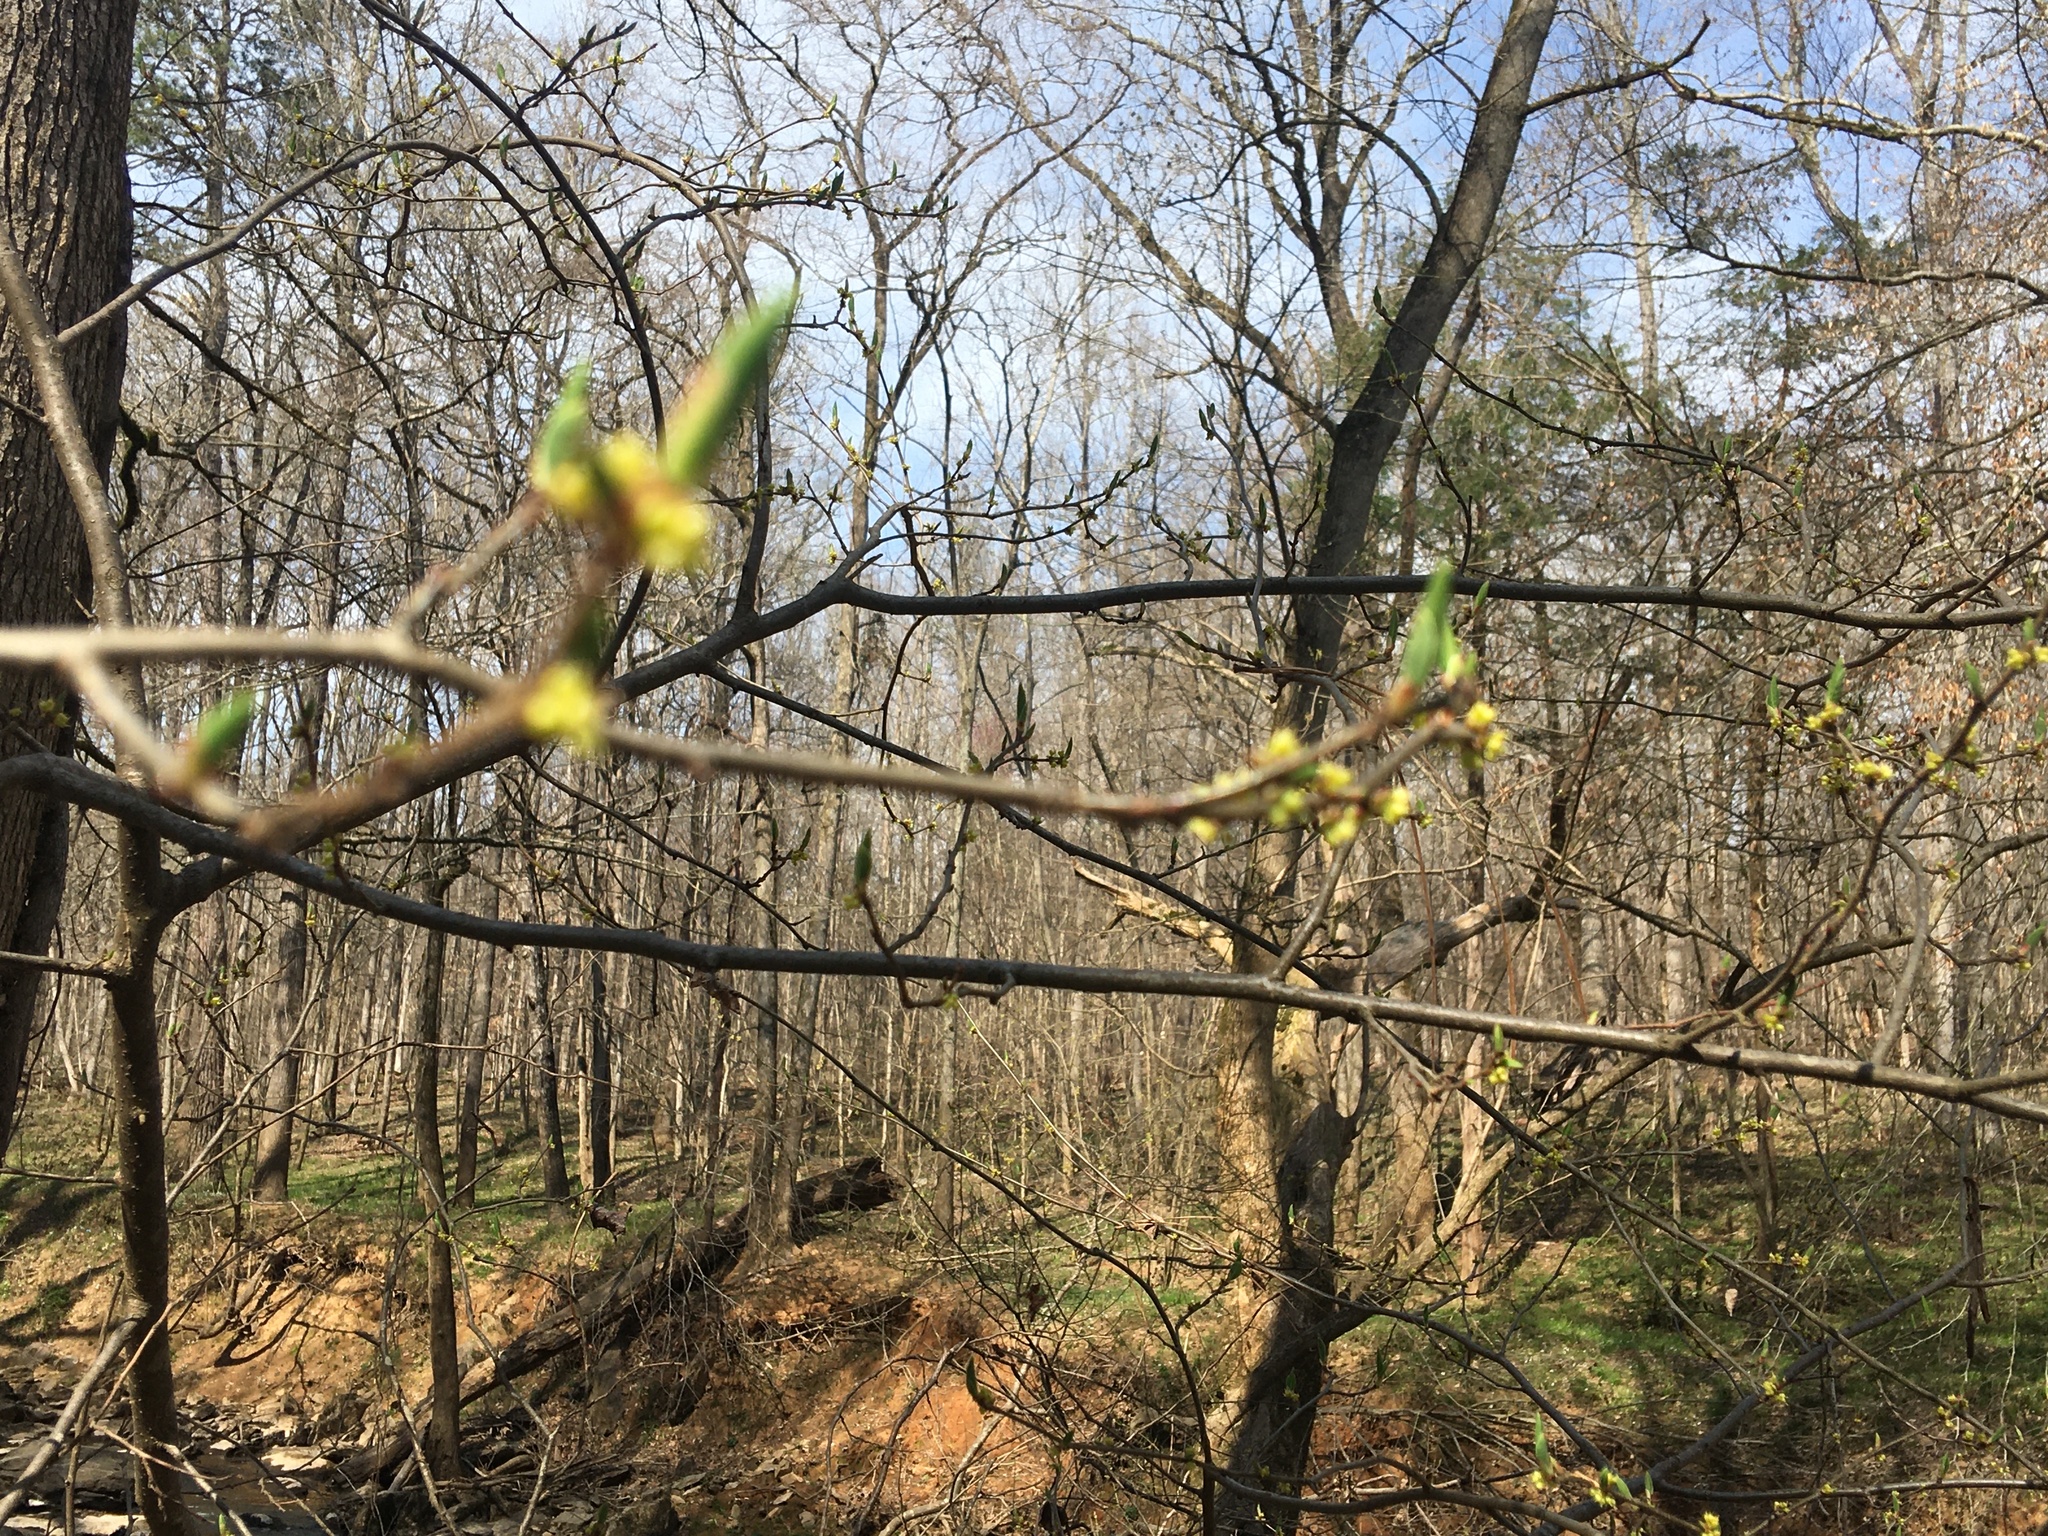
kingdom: Plantae
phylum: Tracheophyta
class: Magnoliopsida
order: Laurales
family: Lauraceae
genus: Lindera
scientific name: Lindera benzoin
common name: Spicebush
